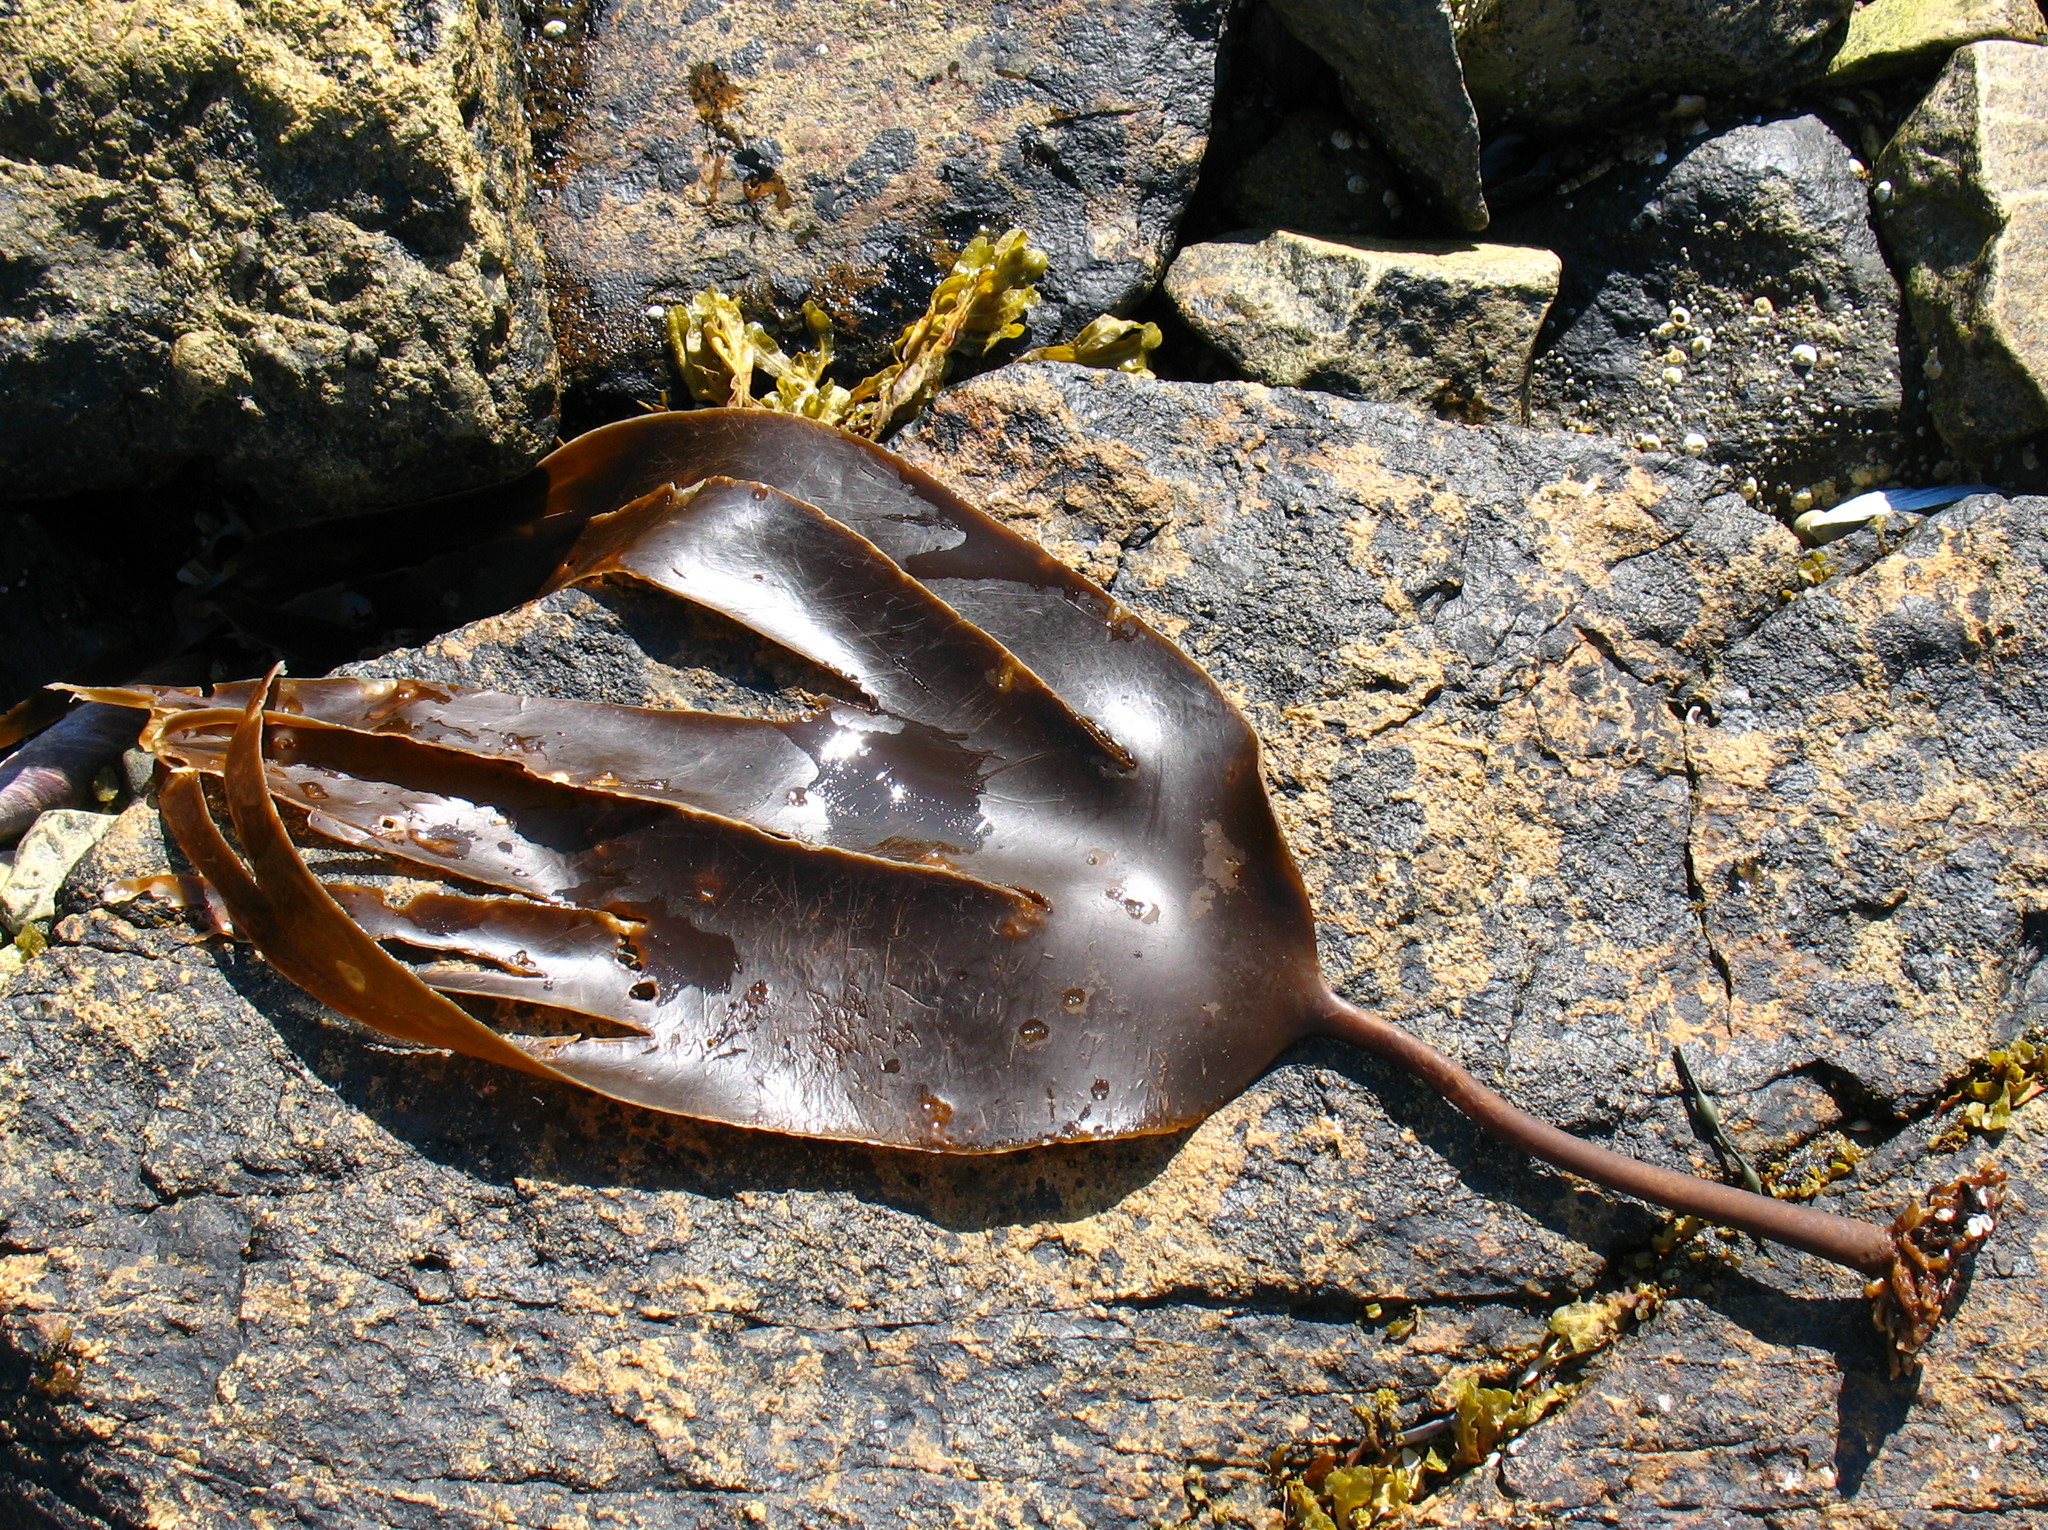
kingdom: Chromista
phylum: Ochrophyta
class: Phaeophyceae
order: Laminariales
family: Laminariaceae
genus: Laminaria
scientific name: Laminaria digitata
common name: Oarweed
